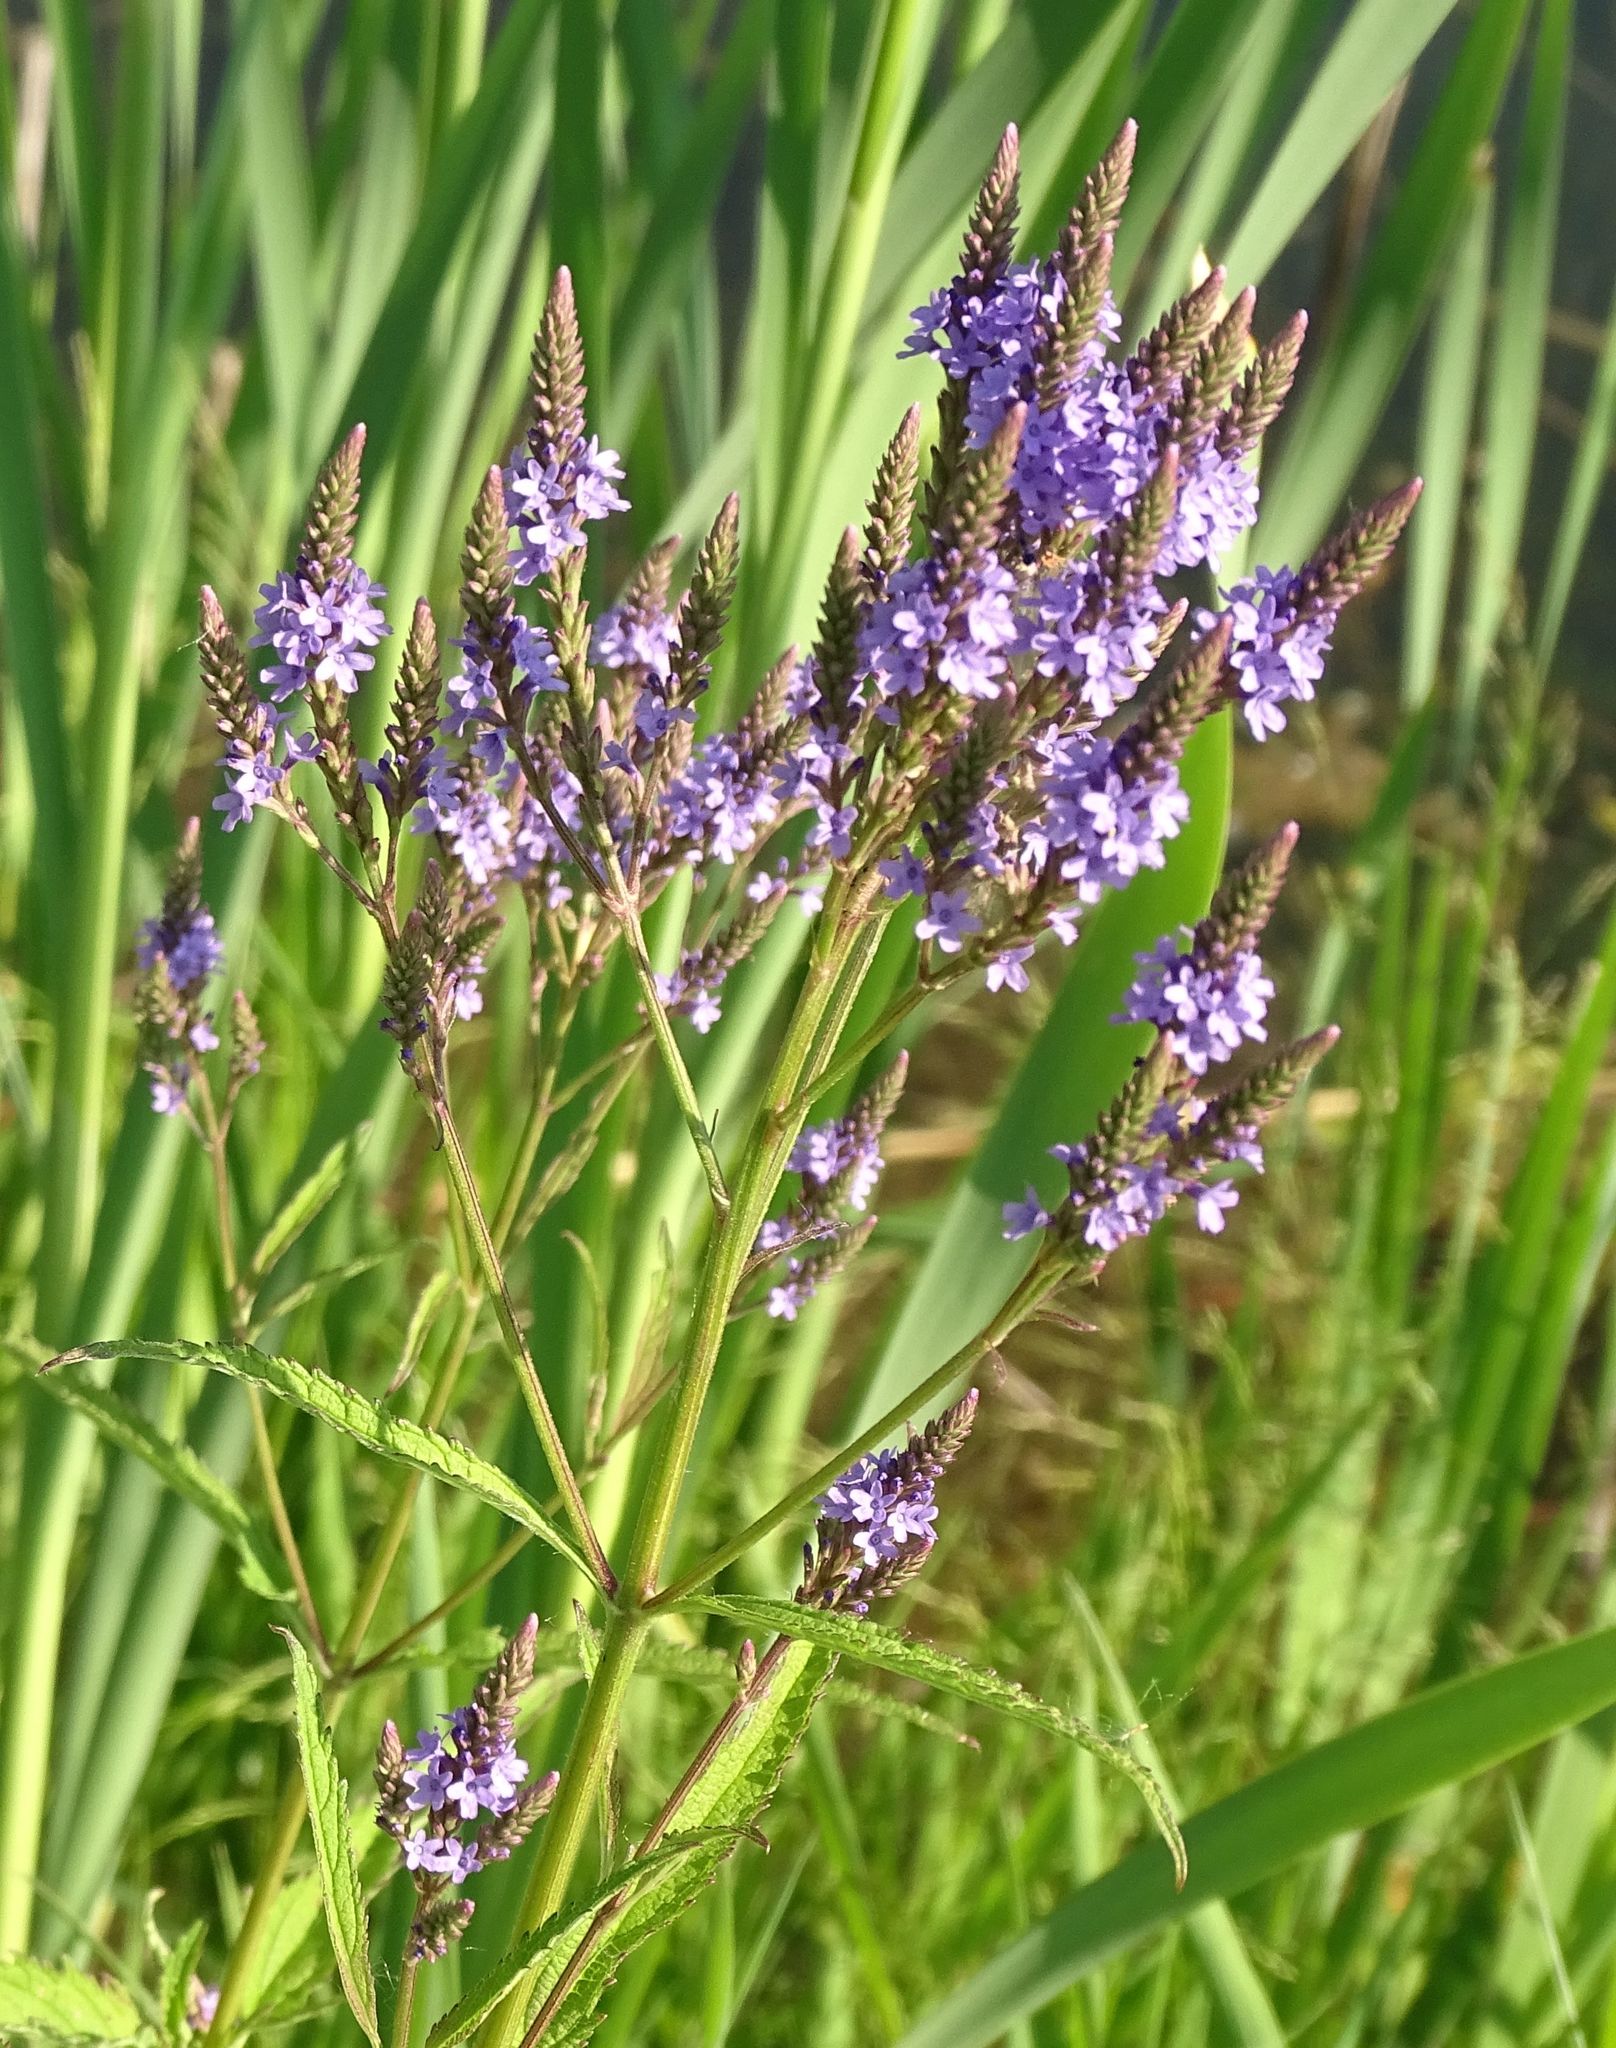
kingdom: Plantae
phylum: Tracheophyta
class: Magnoliopsida
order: Lamiales
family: Verbenaceae
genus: Verbena
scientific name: Verbena hastata
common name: American blue vervain
